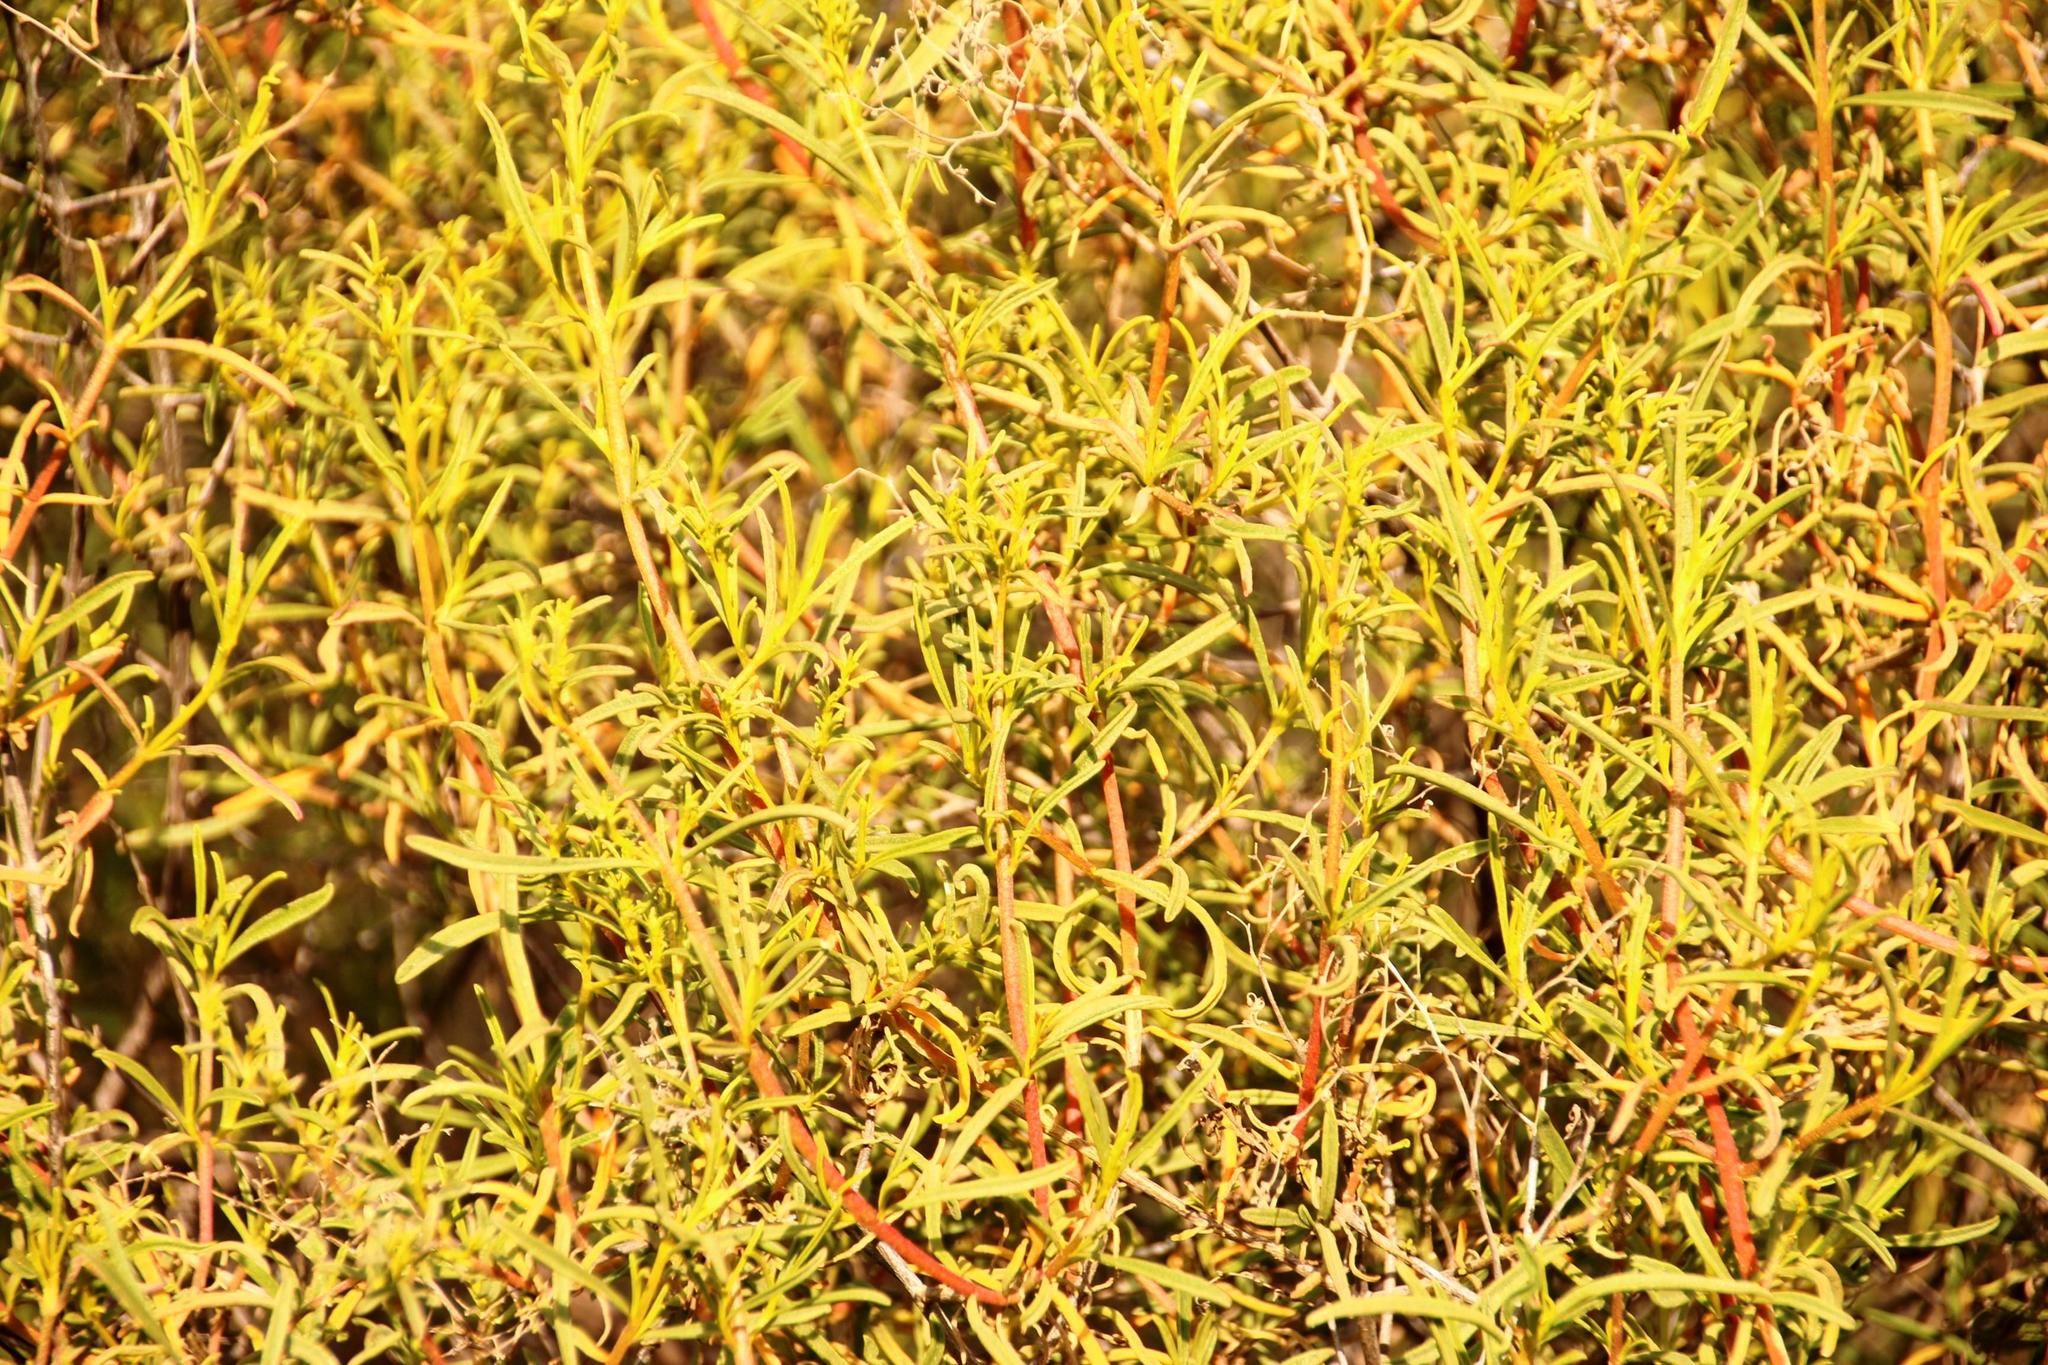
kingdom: Plantae
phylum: Tracheophyta
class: Magnoliopsida
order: Caryophyllales
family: Aizoaceae
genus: Aizoon
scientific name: Aizoon africanum
